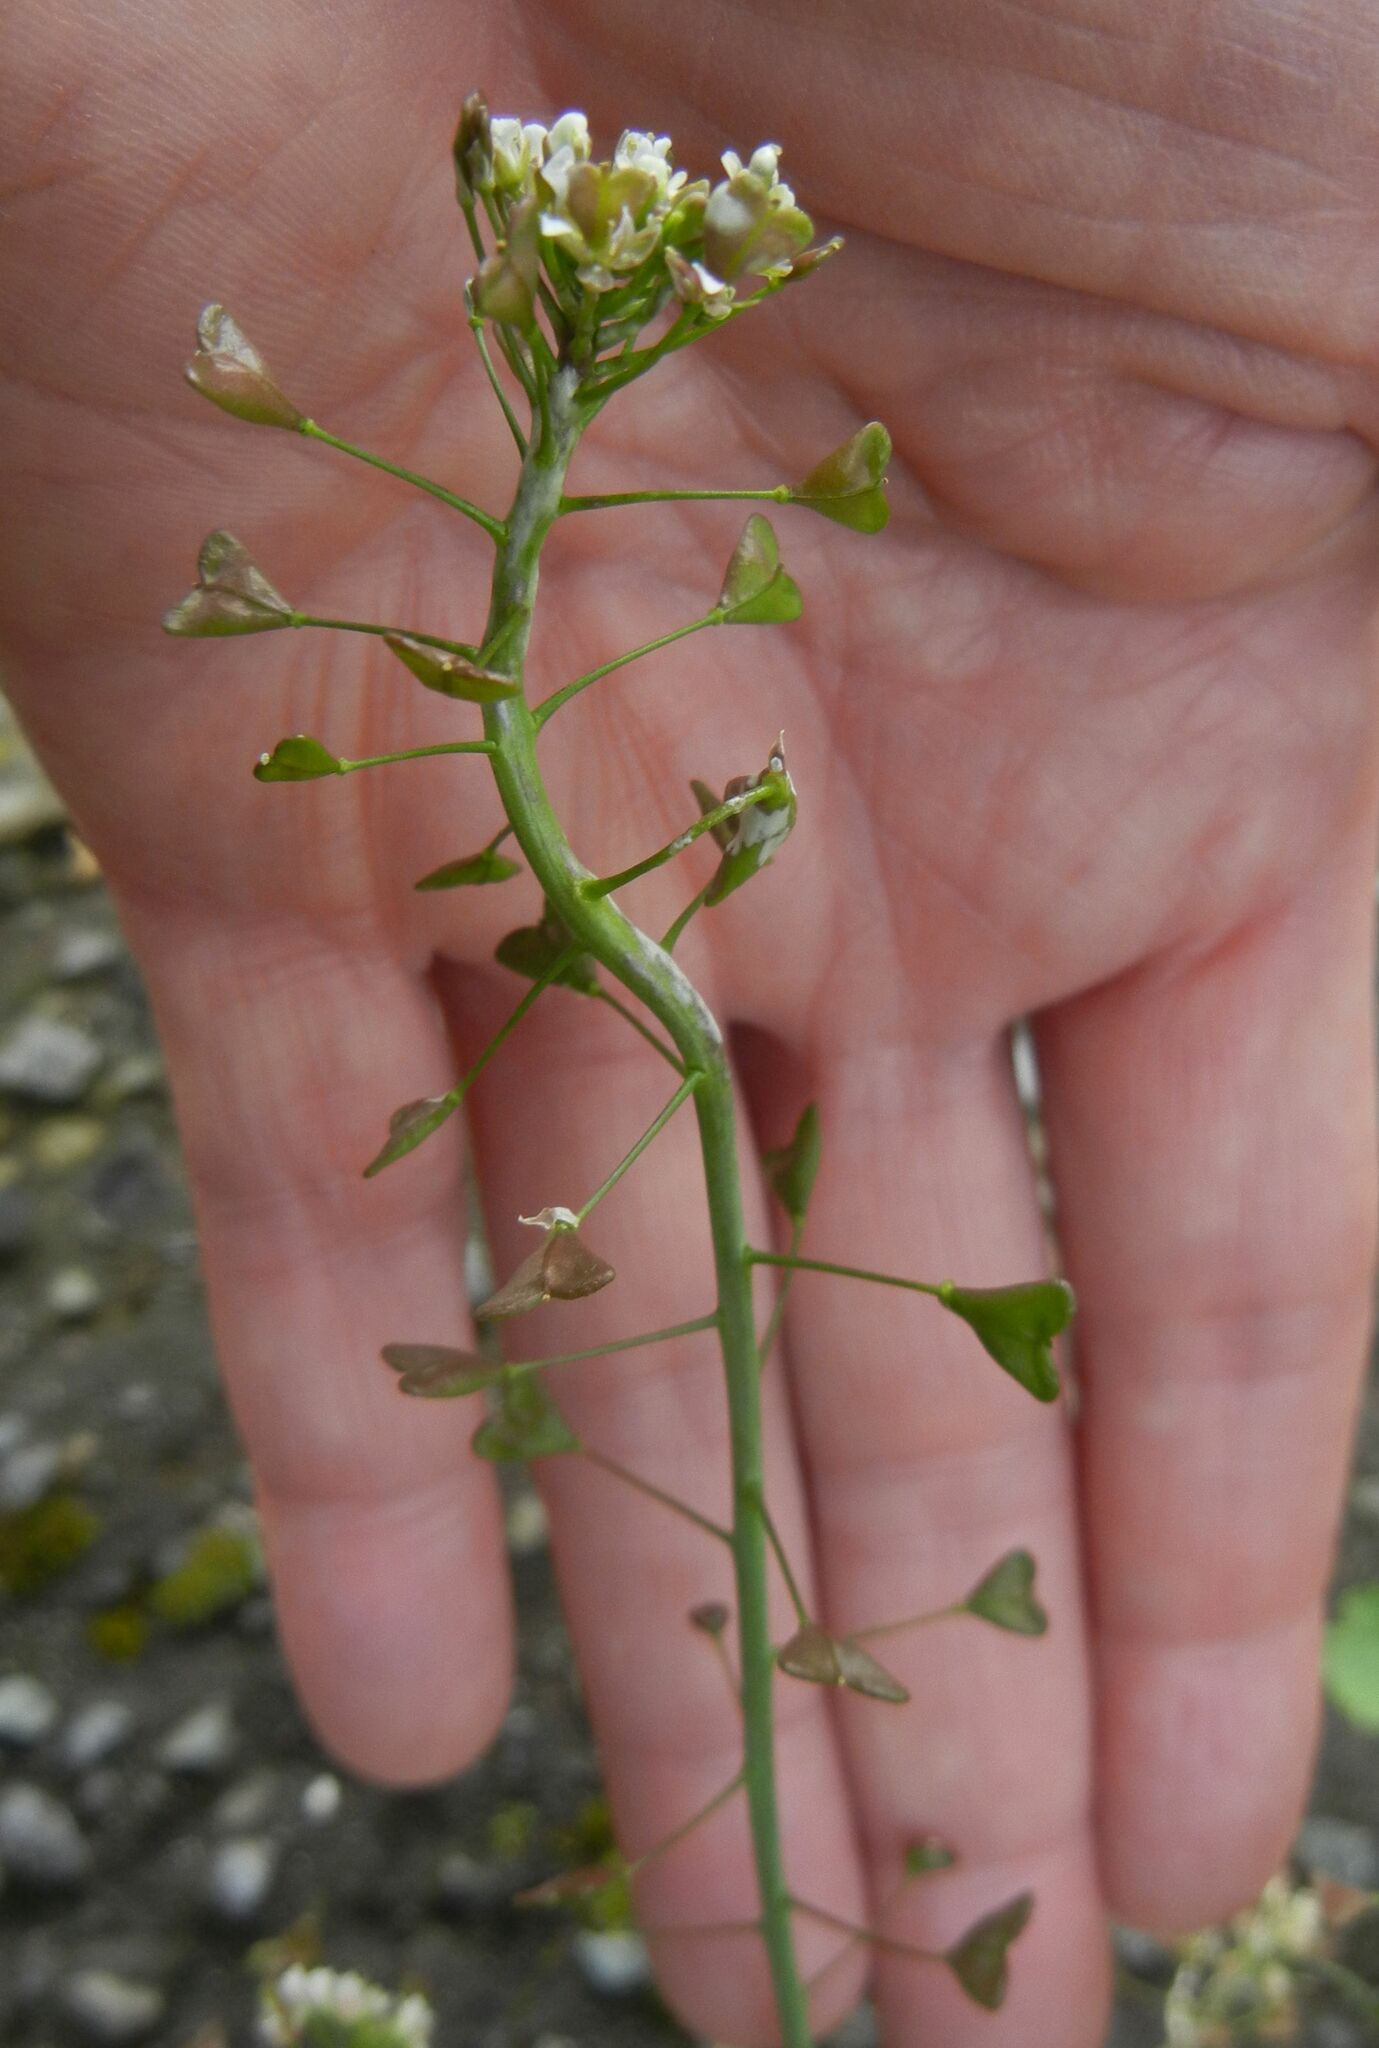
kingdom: Plantae
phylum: Tracheophyta
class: Magnoliopsida
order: Brassicales
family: Brassicaceae
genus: Capsella
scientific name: Capsella bursa-pastoris
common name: Shepherd's purse
